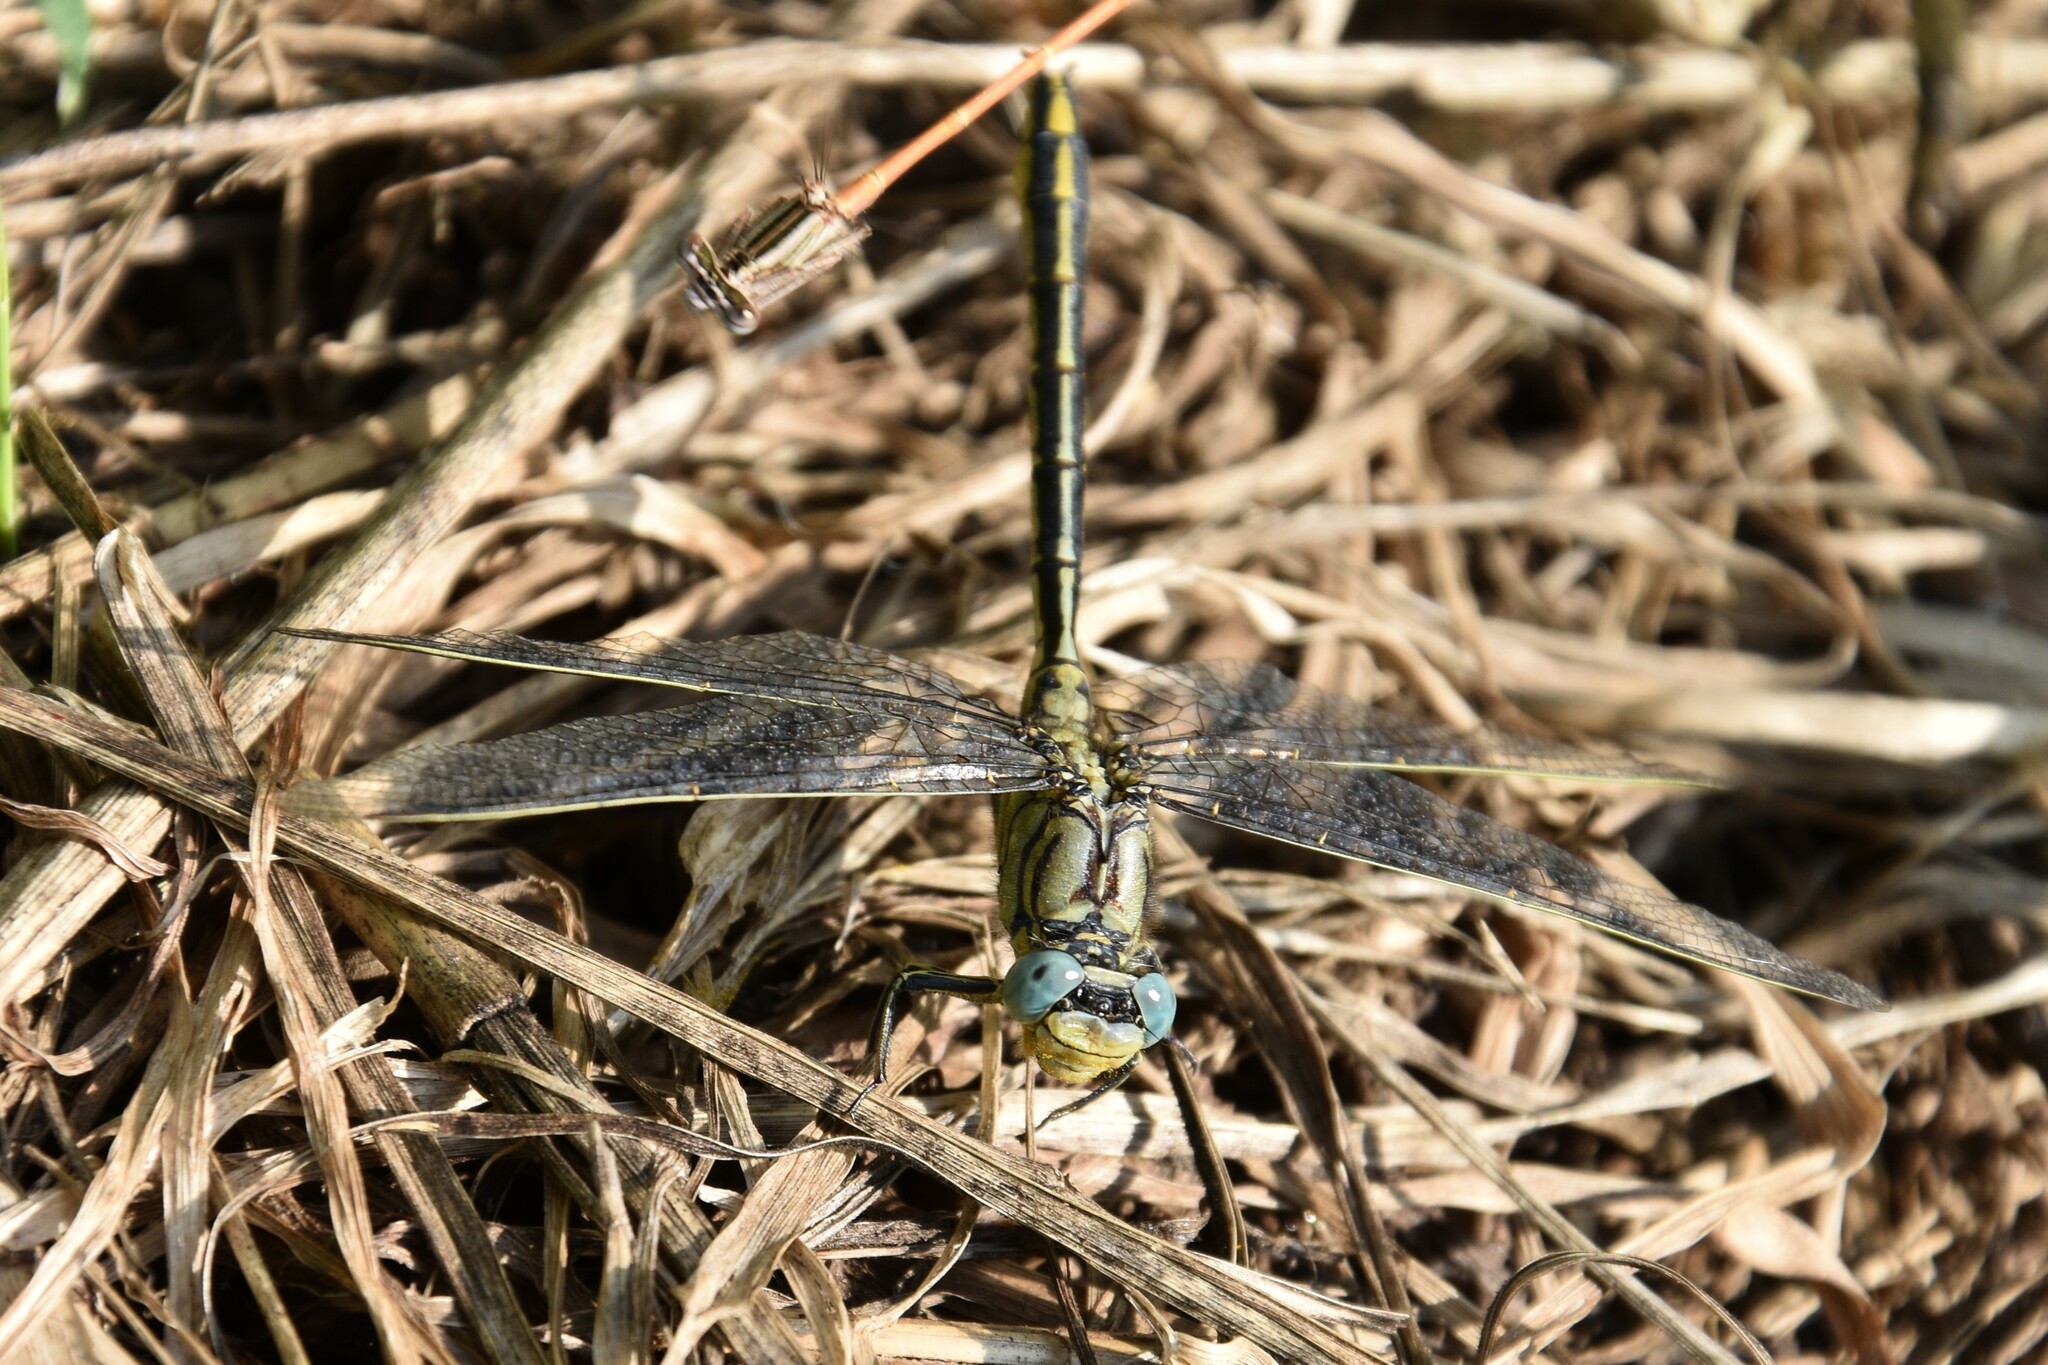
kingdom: Animalia
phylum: Arthropoda
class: Insecta
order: Odonata
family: Gomphidae
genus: Gomphus
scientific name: Gomphus pulchellus
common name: Western clubtail
